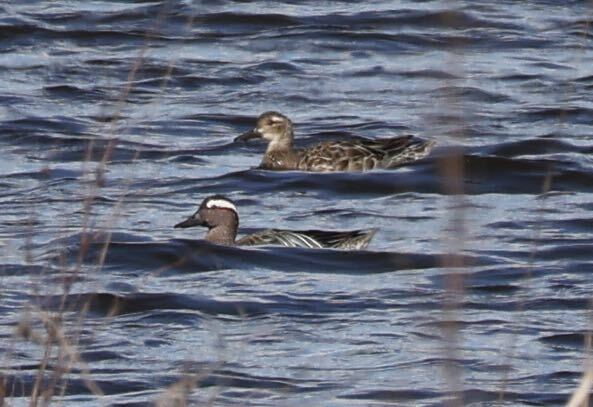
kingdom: Animalia
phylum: Chordata
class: Aves
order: Anseriformes
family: Anatidae
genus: Spatula
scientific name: Spatula querquedula
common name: Garganey
